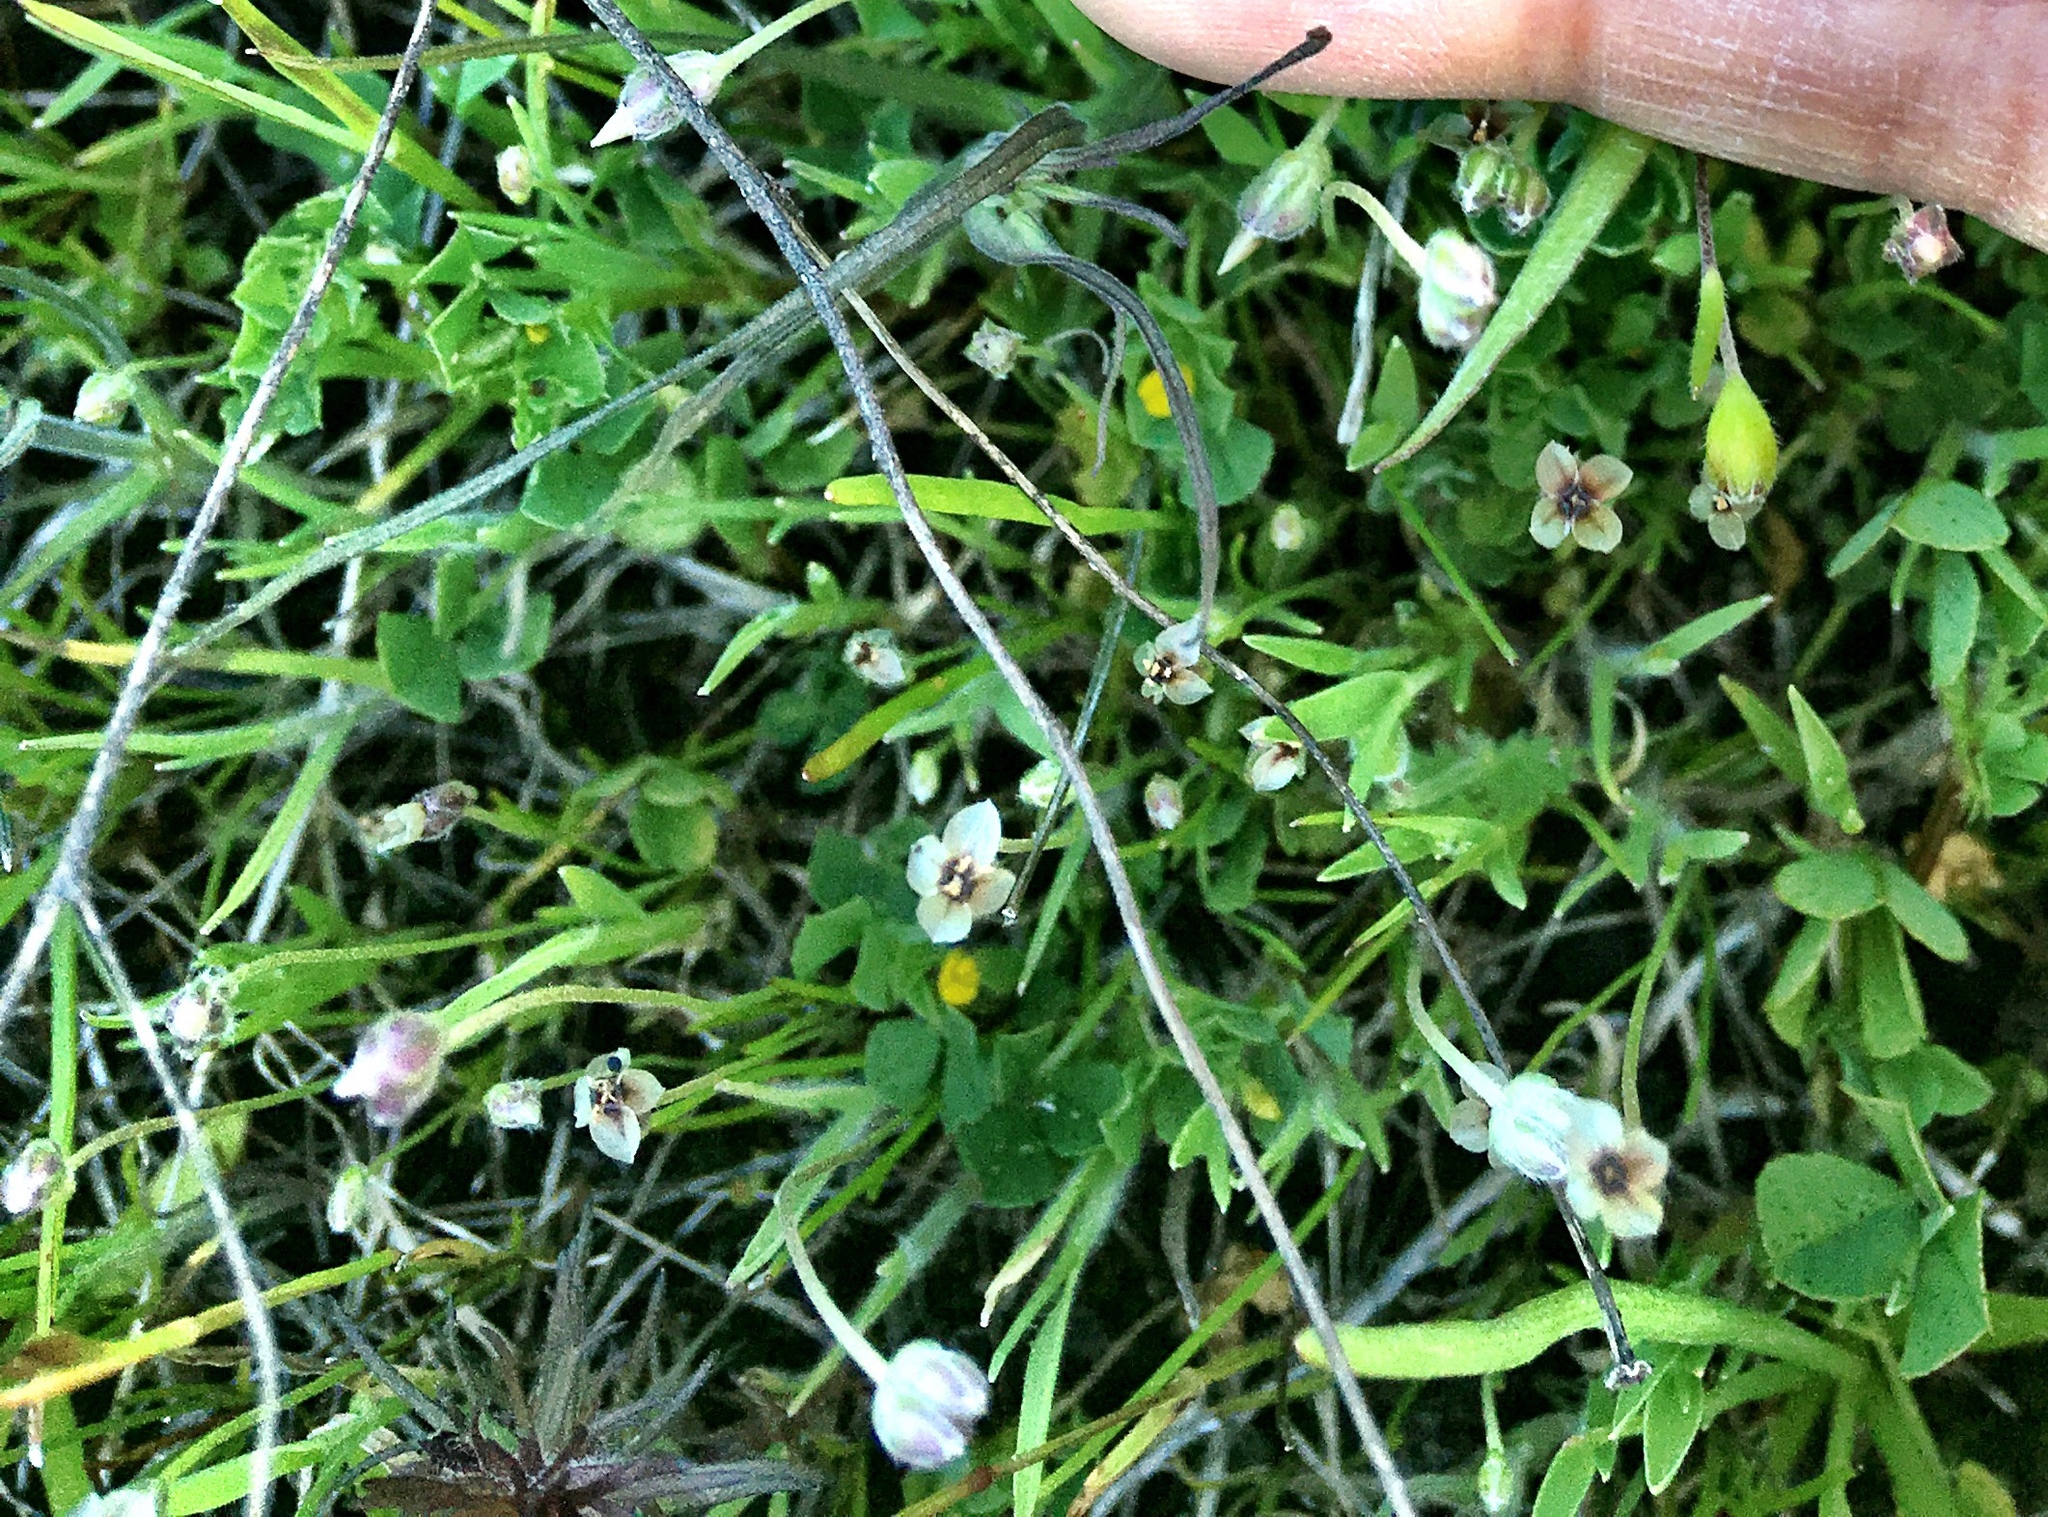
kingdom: Plantae
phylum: Tracheophyta
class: Magnoliopsida
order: Lamiales
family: Plantaginaceae
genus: Plantago
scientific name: Plantago erecta
